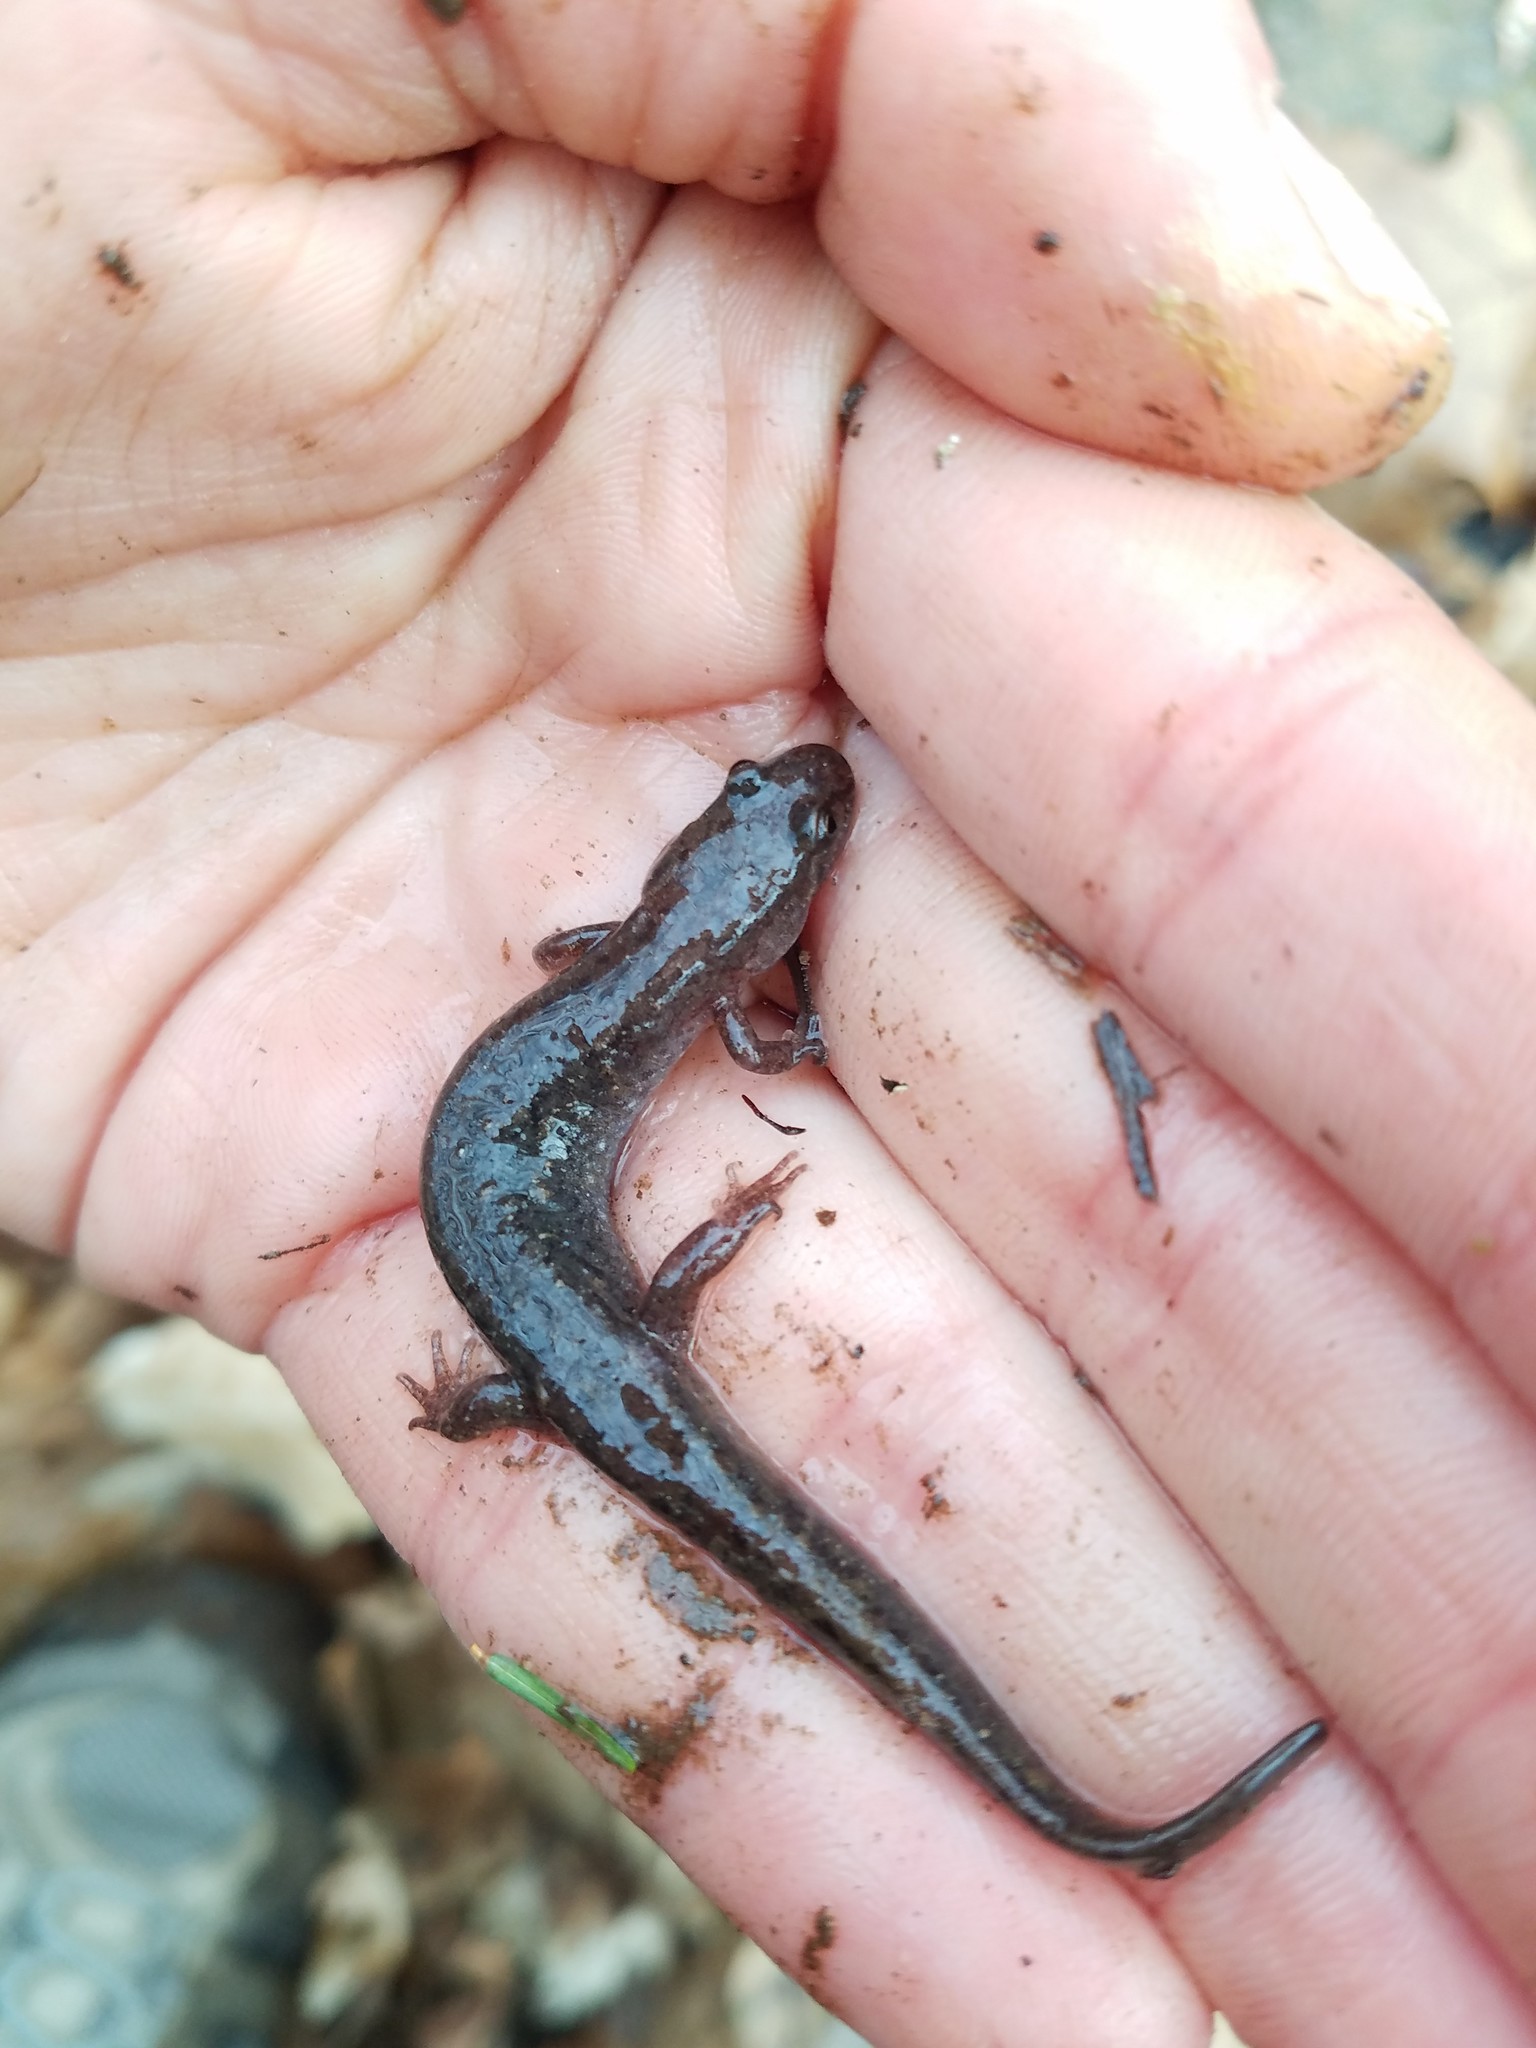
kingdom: Animalia
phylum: Chordata
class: Amphibia
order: Caudata
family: Plethodontidae
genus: Desmognathus
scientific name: Desmognathus fuscus
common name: Northern dusky salamander
